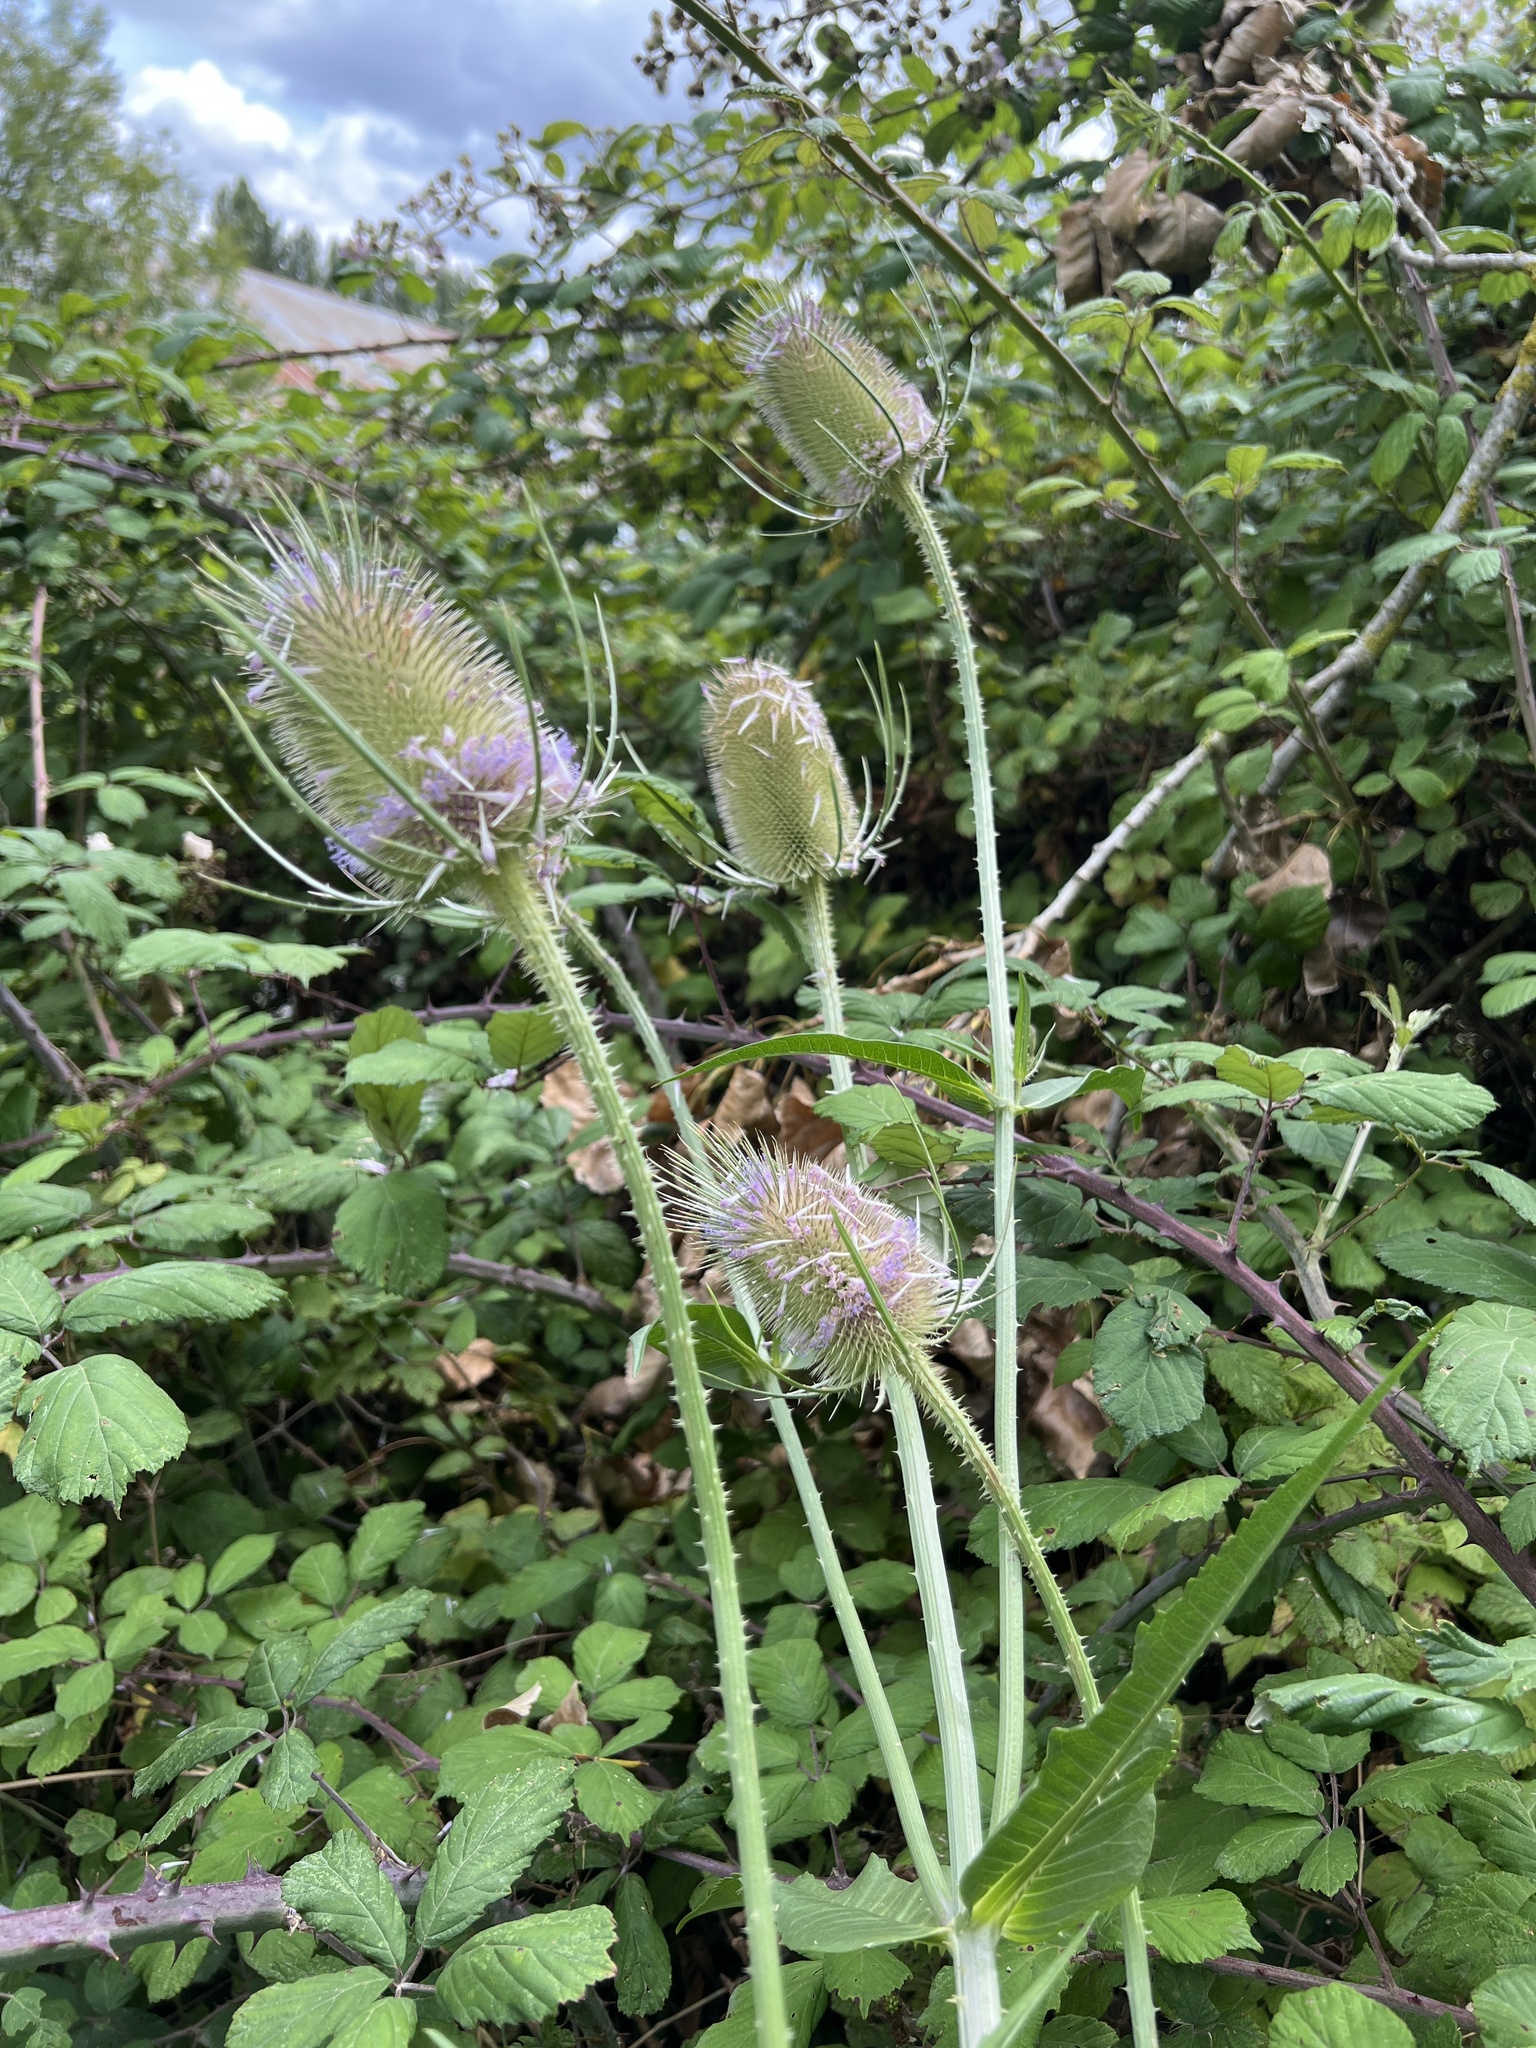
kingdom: Plantae
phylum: Tracheophyta
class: Magnoliopsida
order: Dipsacales
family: Caprifoliaceae
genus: Dipsacus
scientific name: Dipsacus fullonum
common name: Teasel
